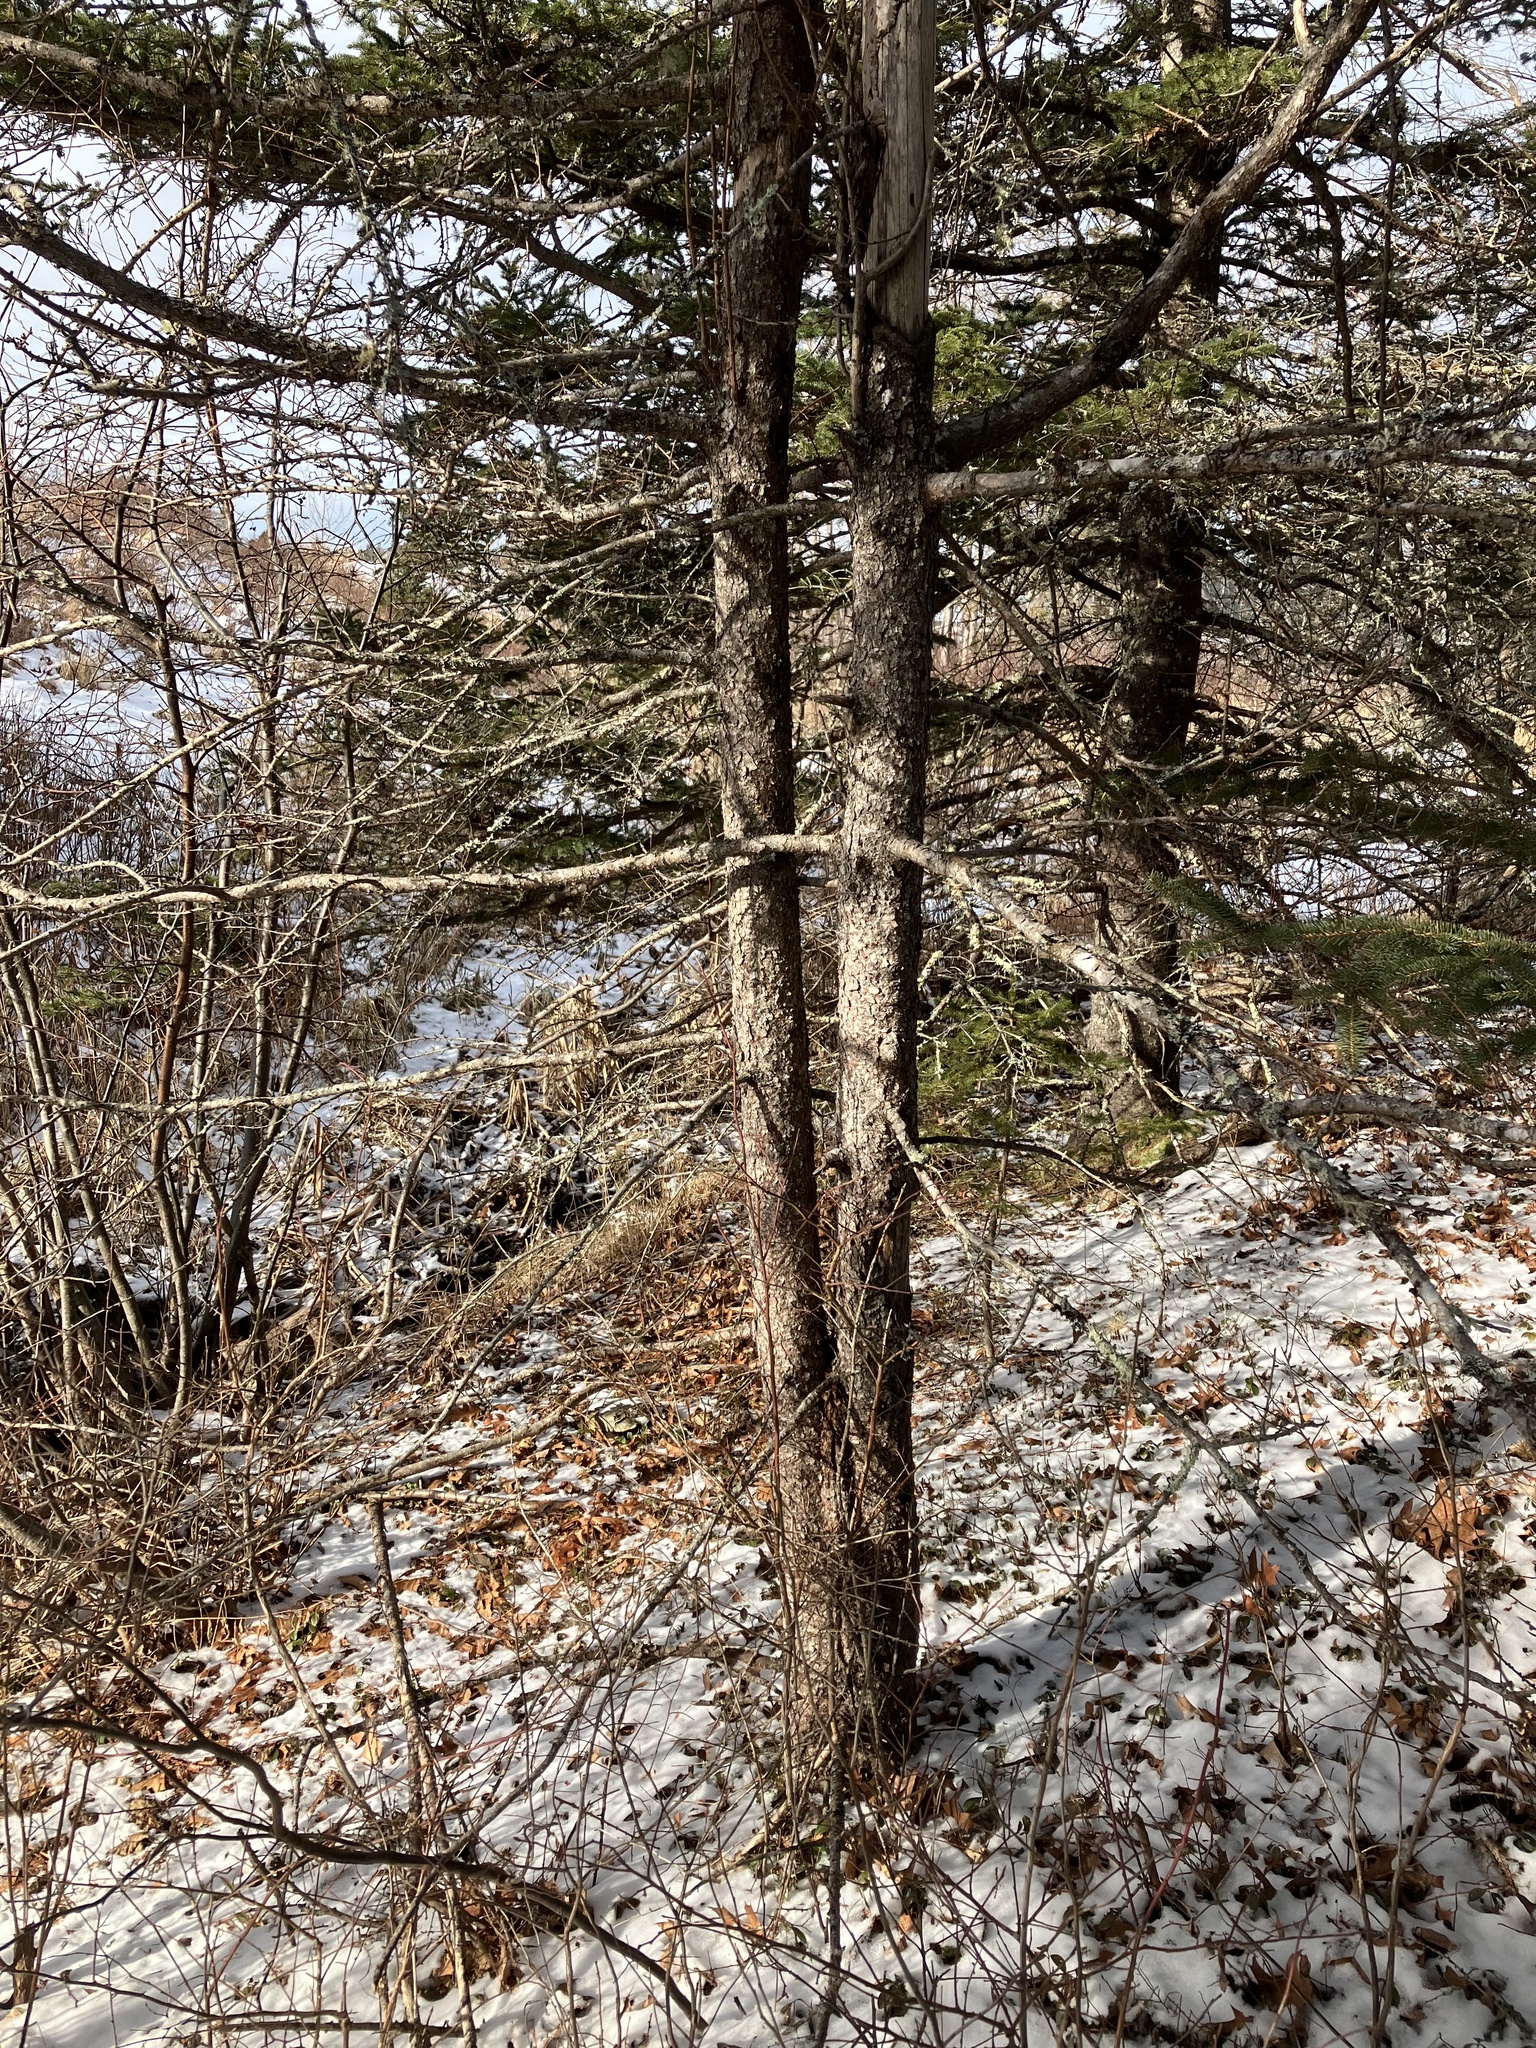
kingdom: Plantae
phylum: Tracheophyta
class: Pinopsida
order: Pinales
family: Pinaceae
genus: Larix
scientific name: Larix laricina
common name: American larch
